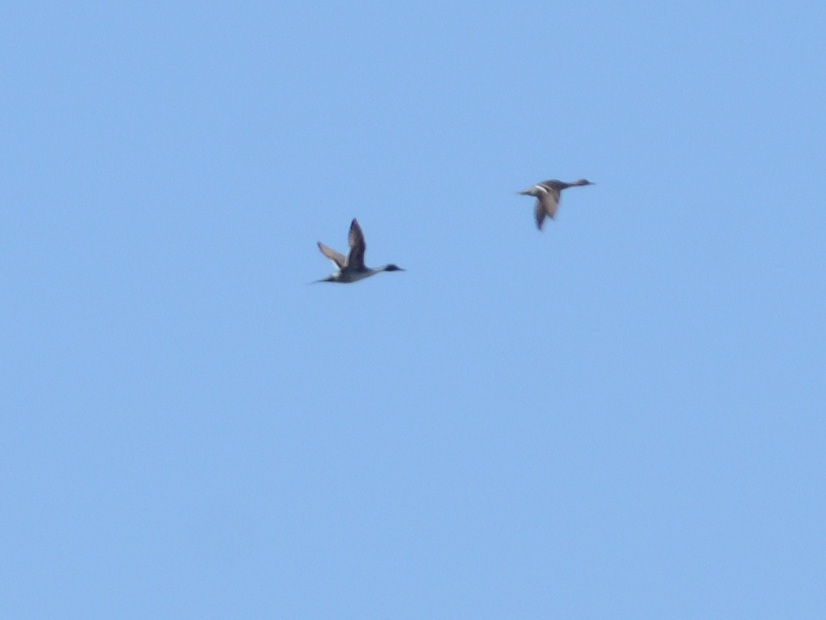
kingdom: Animalia
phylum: Chordata
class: Aves
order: Anseriformes
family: Anatidae
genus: Anas
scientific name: Anas acuta
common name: Northern pintail
